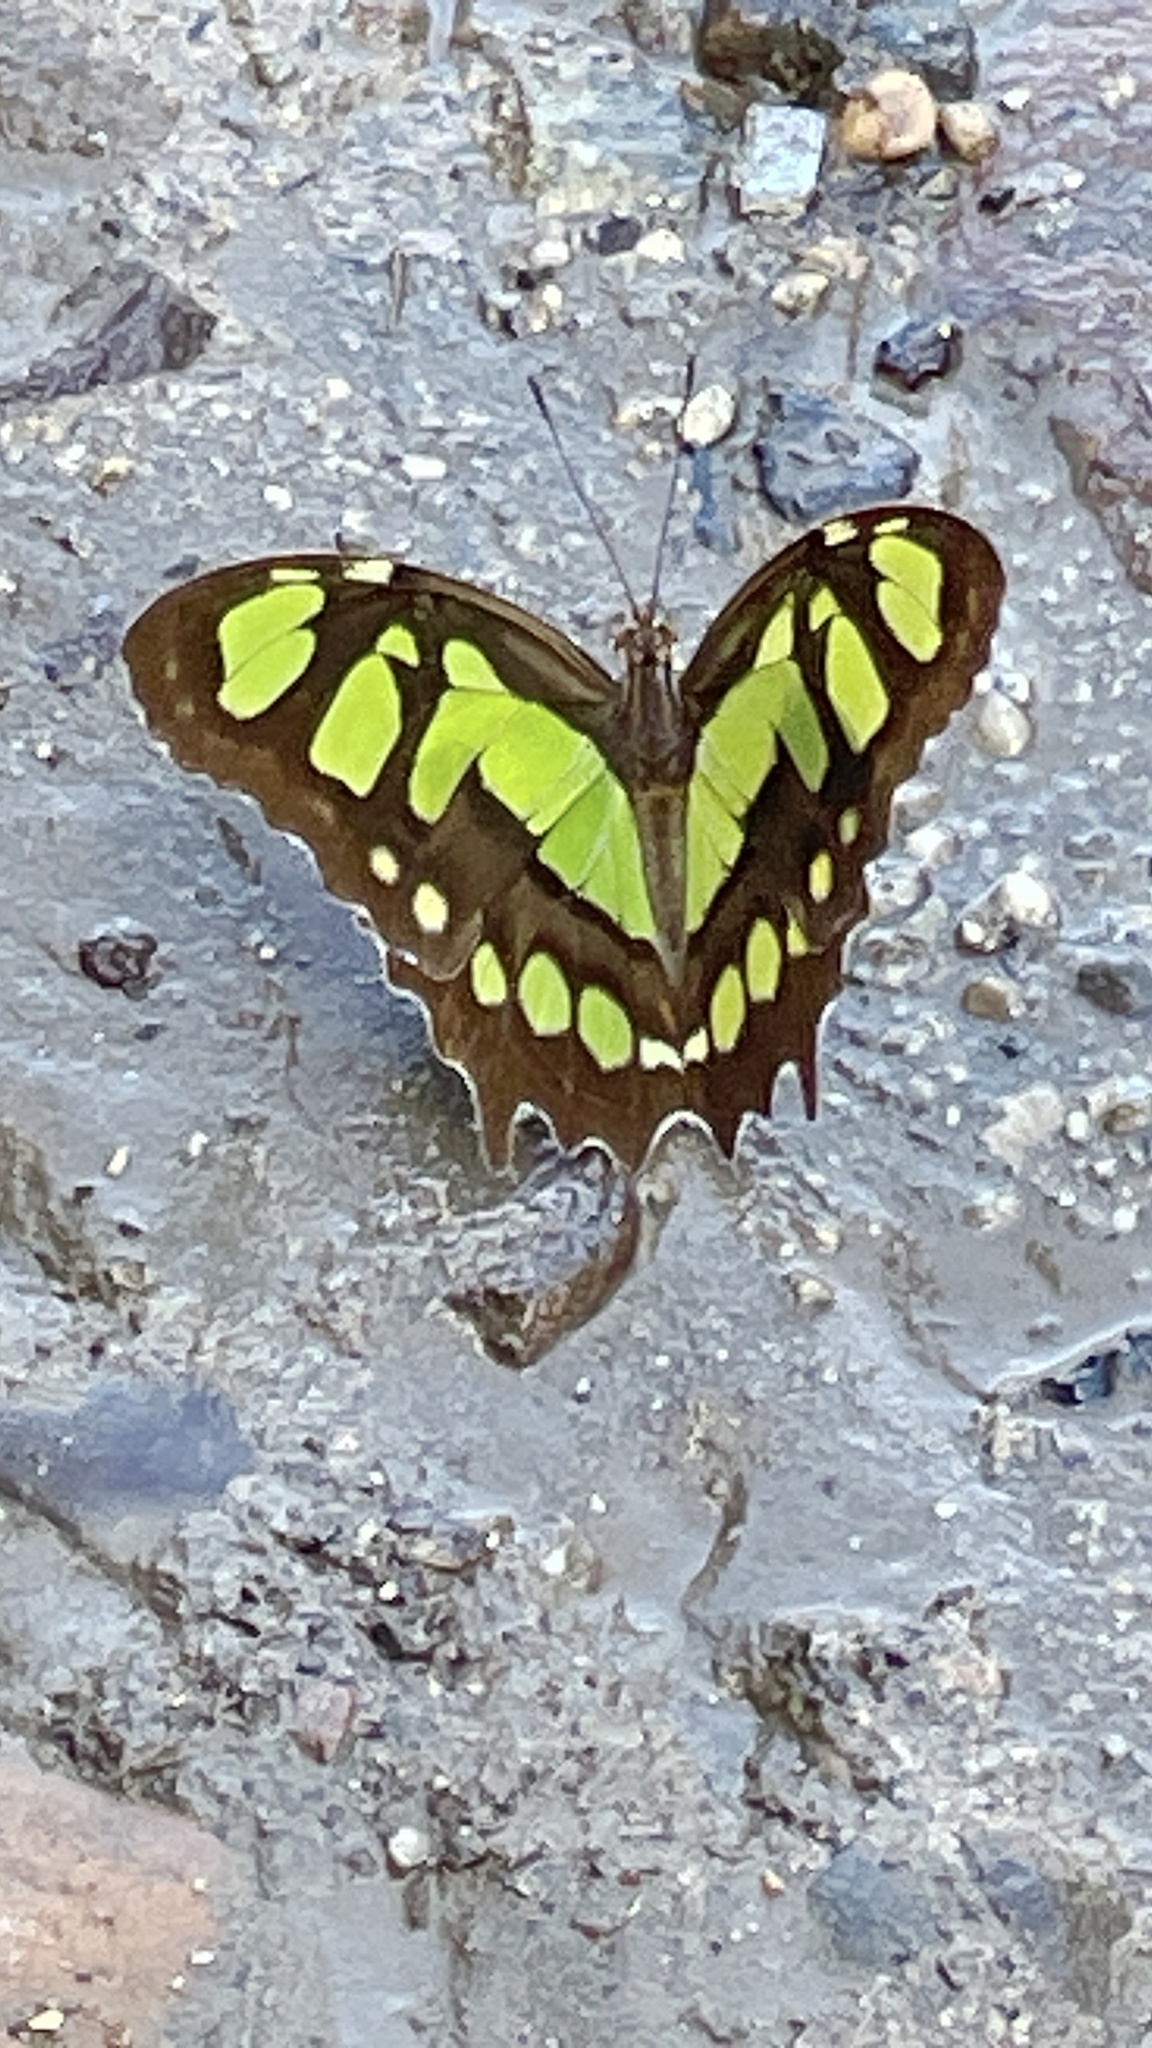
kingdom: Animalia
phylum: Arthropoda
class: Insecta
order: Lepidoptera
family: Nymphalidae
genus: Siproeta
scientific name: Siproeta stelenes
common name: Malachite
